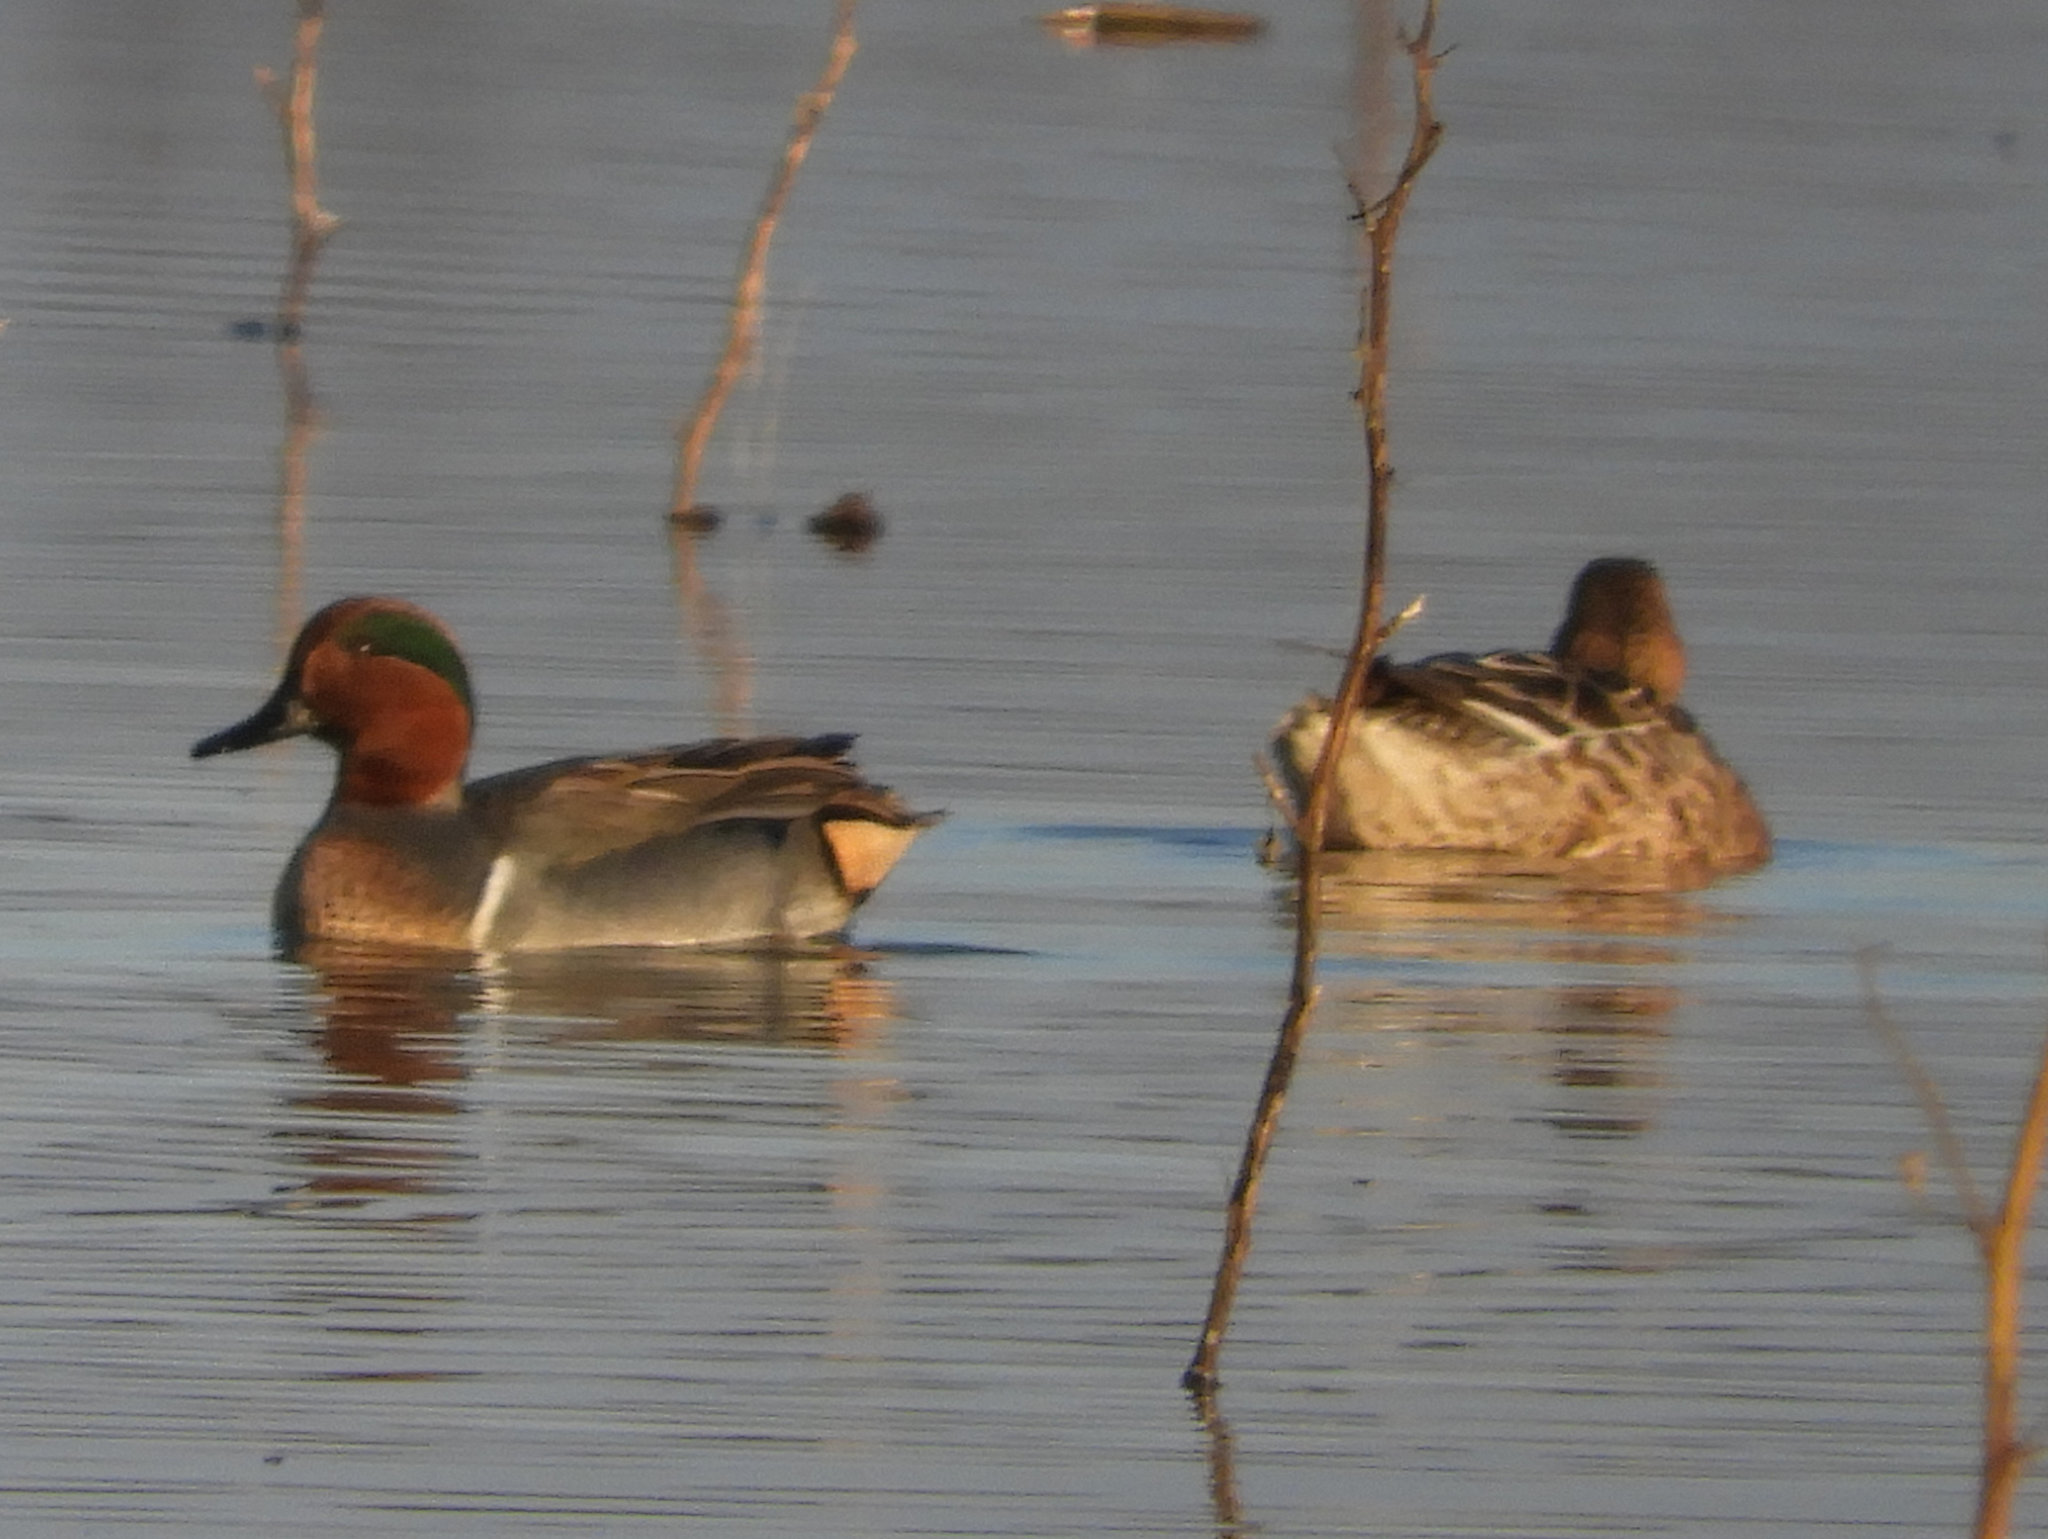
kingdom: Animalia
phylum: Chordata
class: Aves
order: Anseriformes
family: Anatidae
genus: Anas
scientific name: Anas crecca
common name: Eurasian teal
